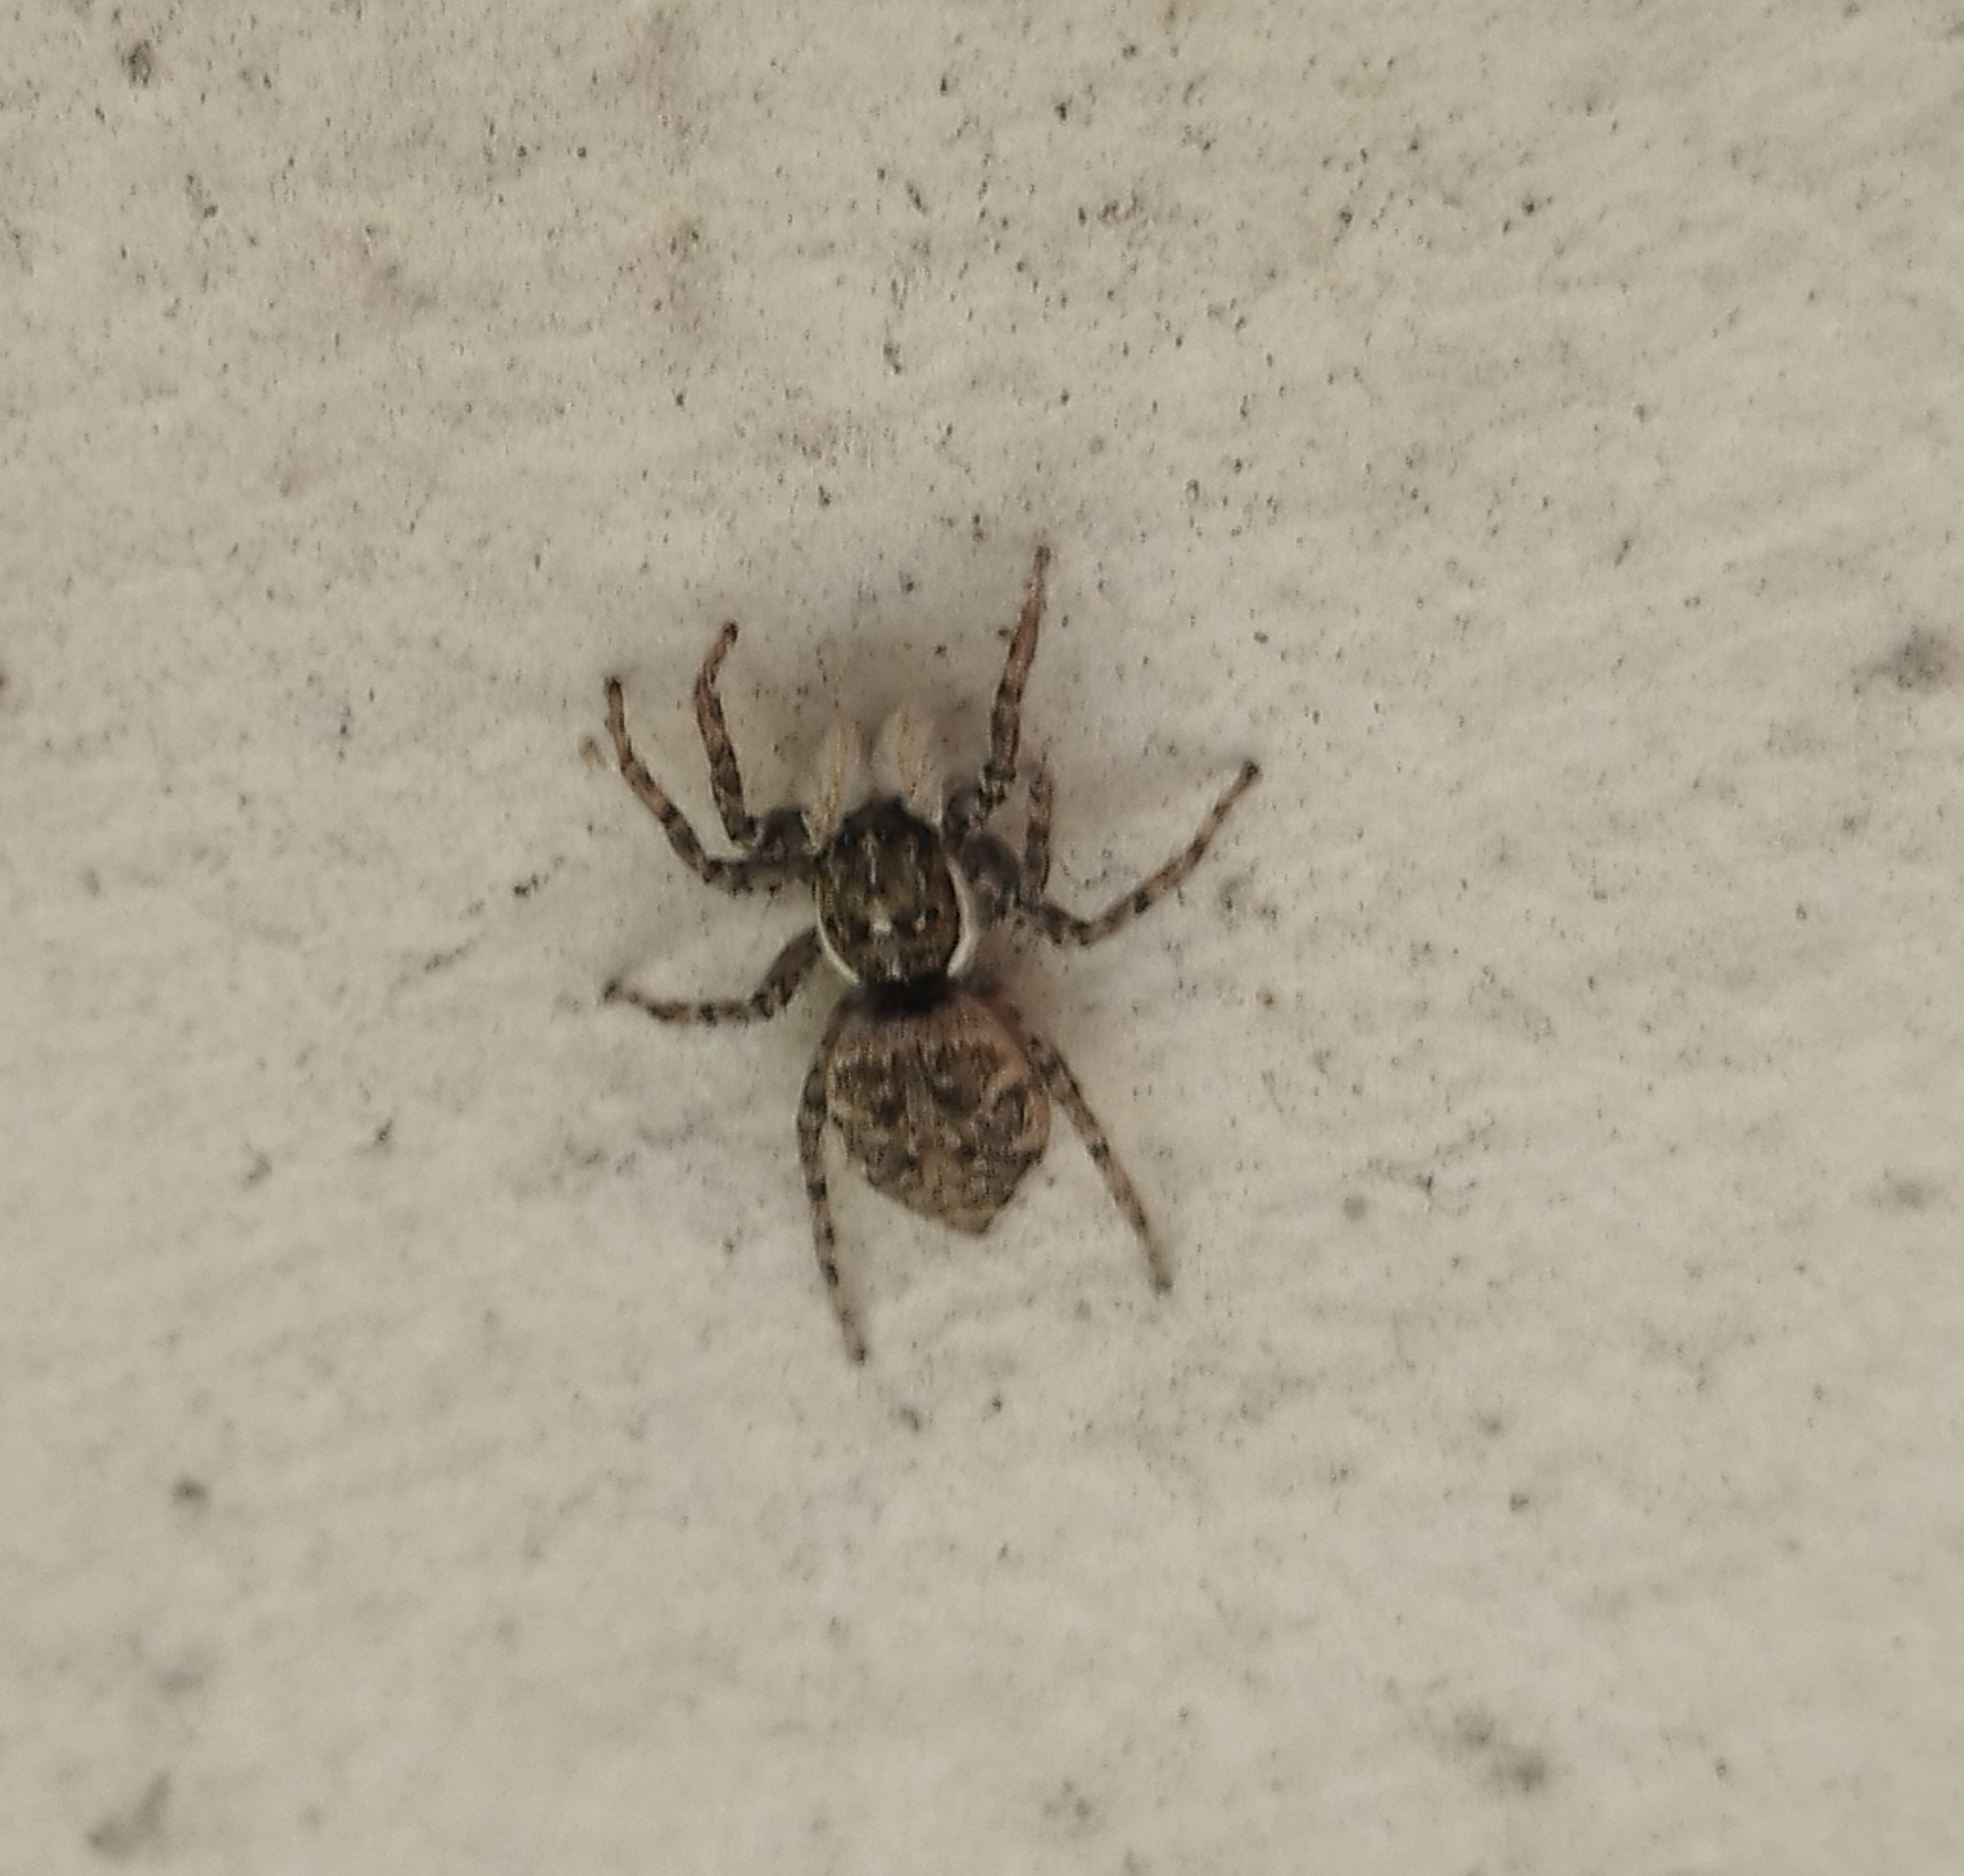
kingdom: Animalia
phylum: Arthropoda
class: Arachnida
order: Araneae
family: Salticidae
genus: Menemerus
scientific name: Menemerus semilimbatus
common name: Jumping spider
